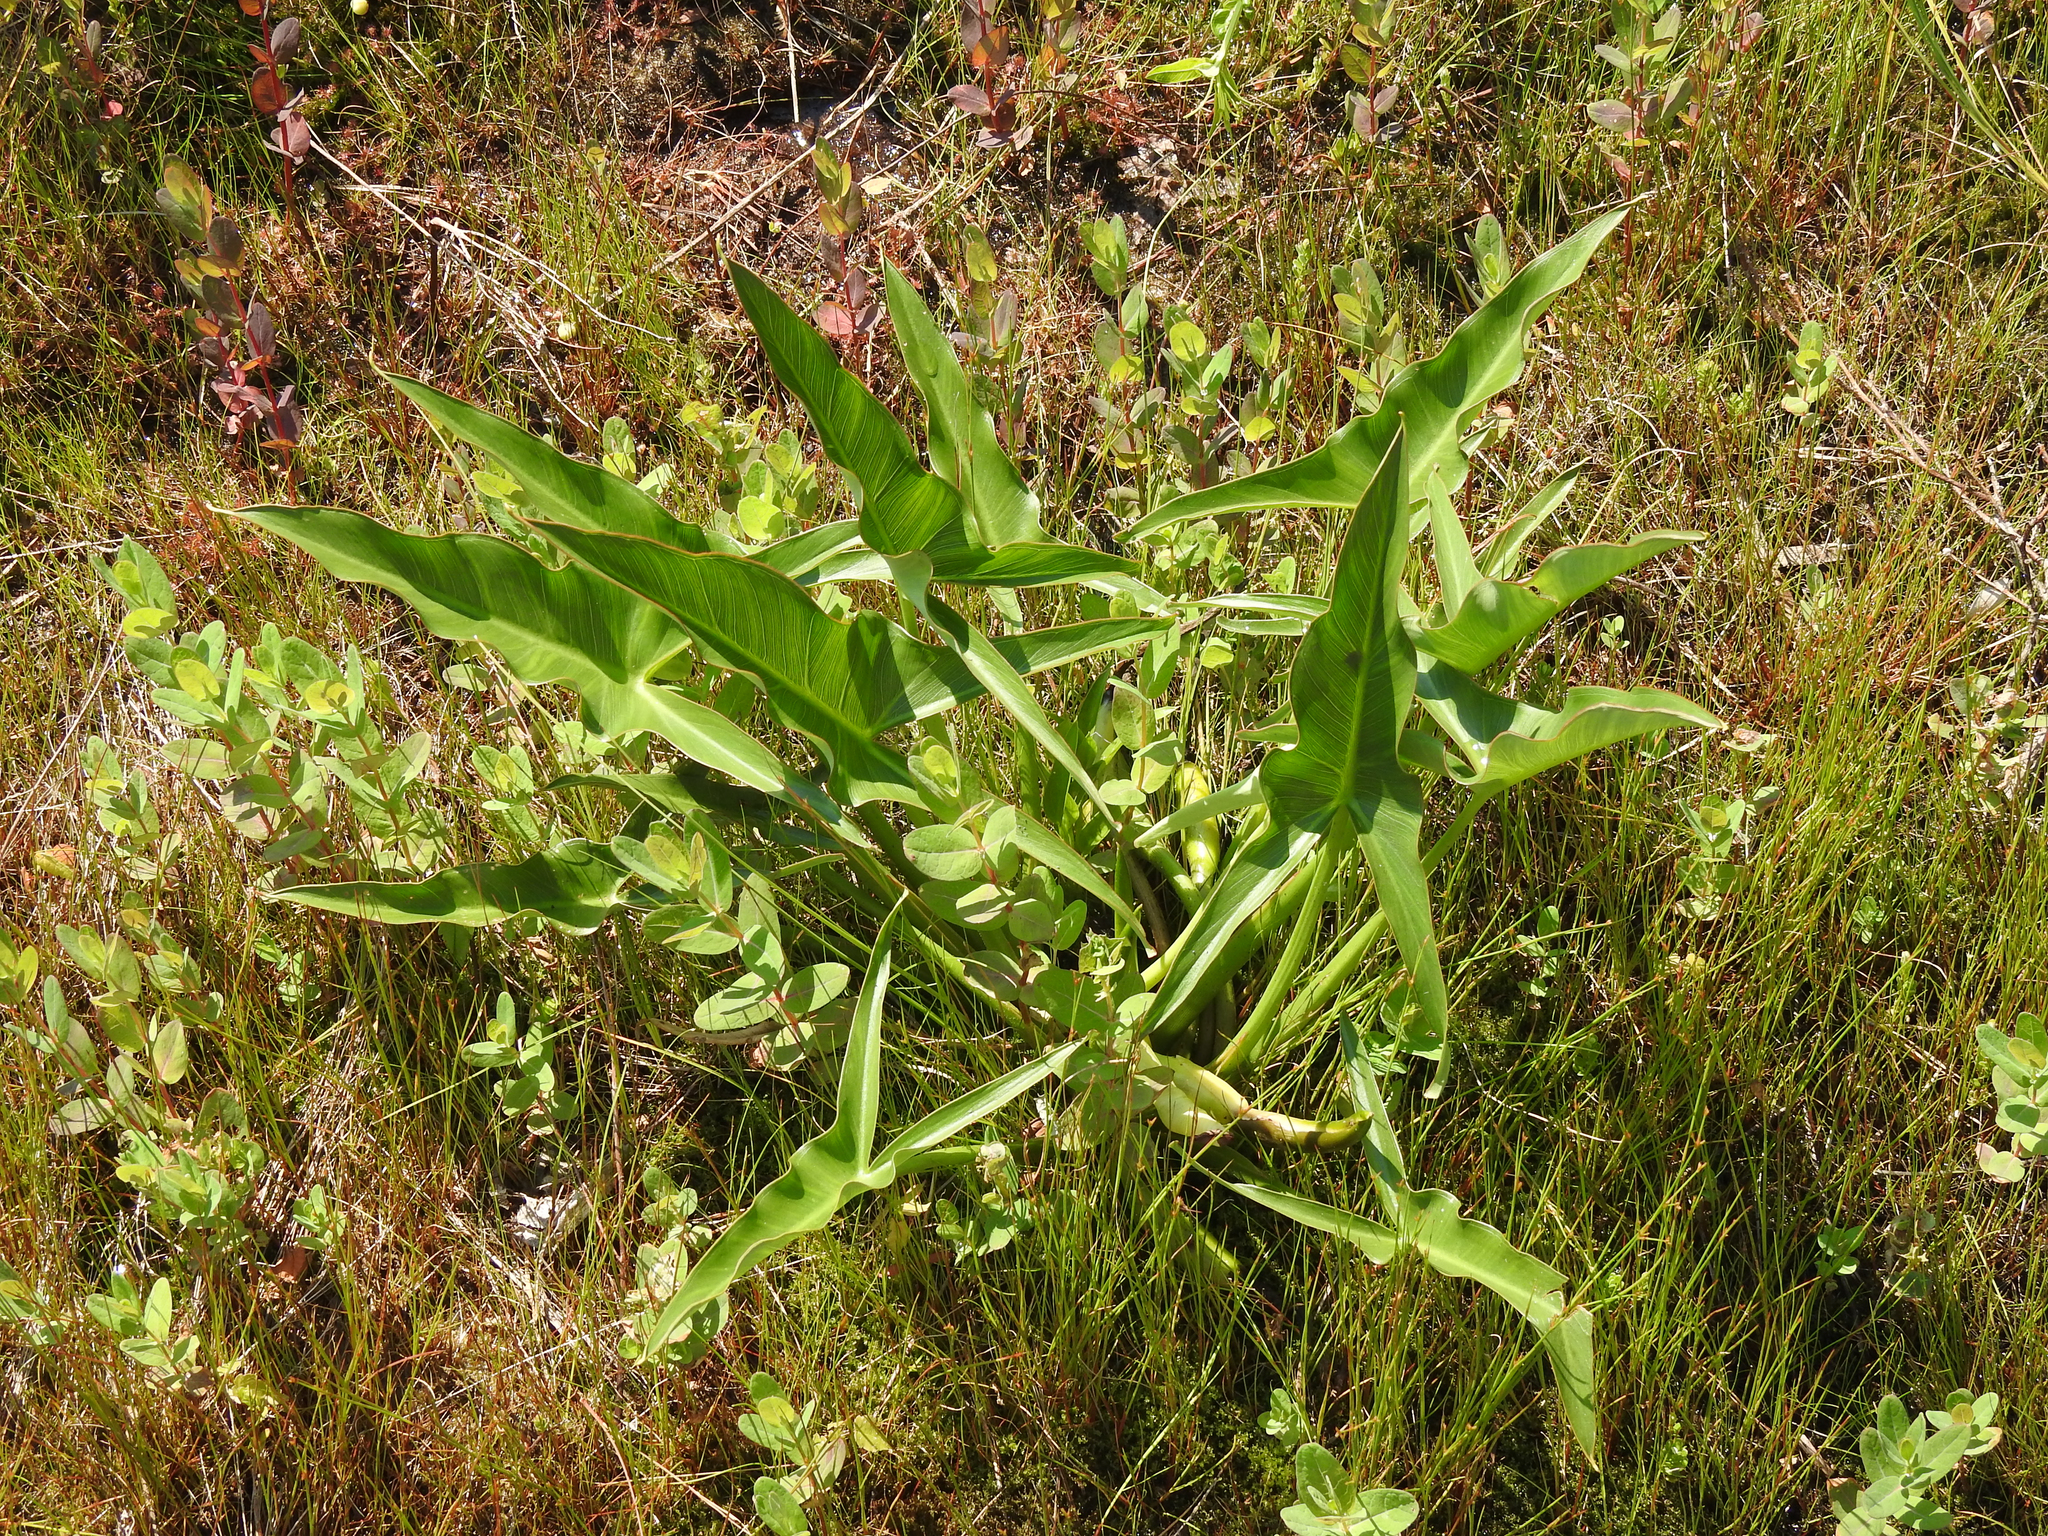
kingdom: Plantae
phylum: Tracheophyta
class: Liliopsida
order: Alismatales
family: Araceae
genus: Peltandra
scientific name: Peltandra virginica
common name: Arrow arum
